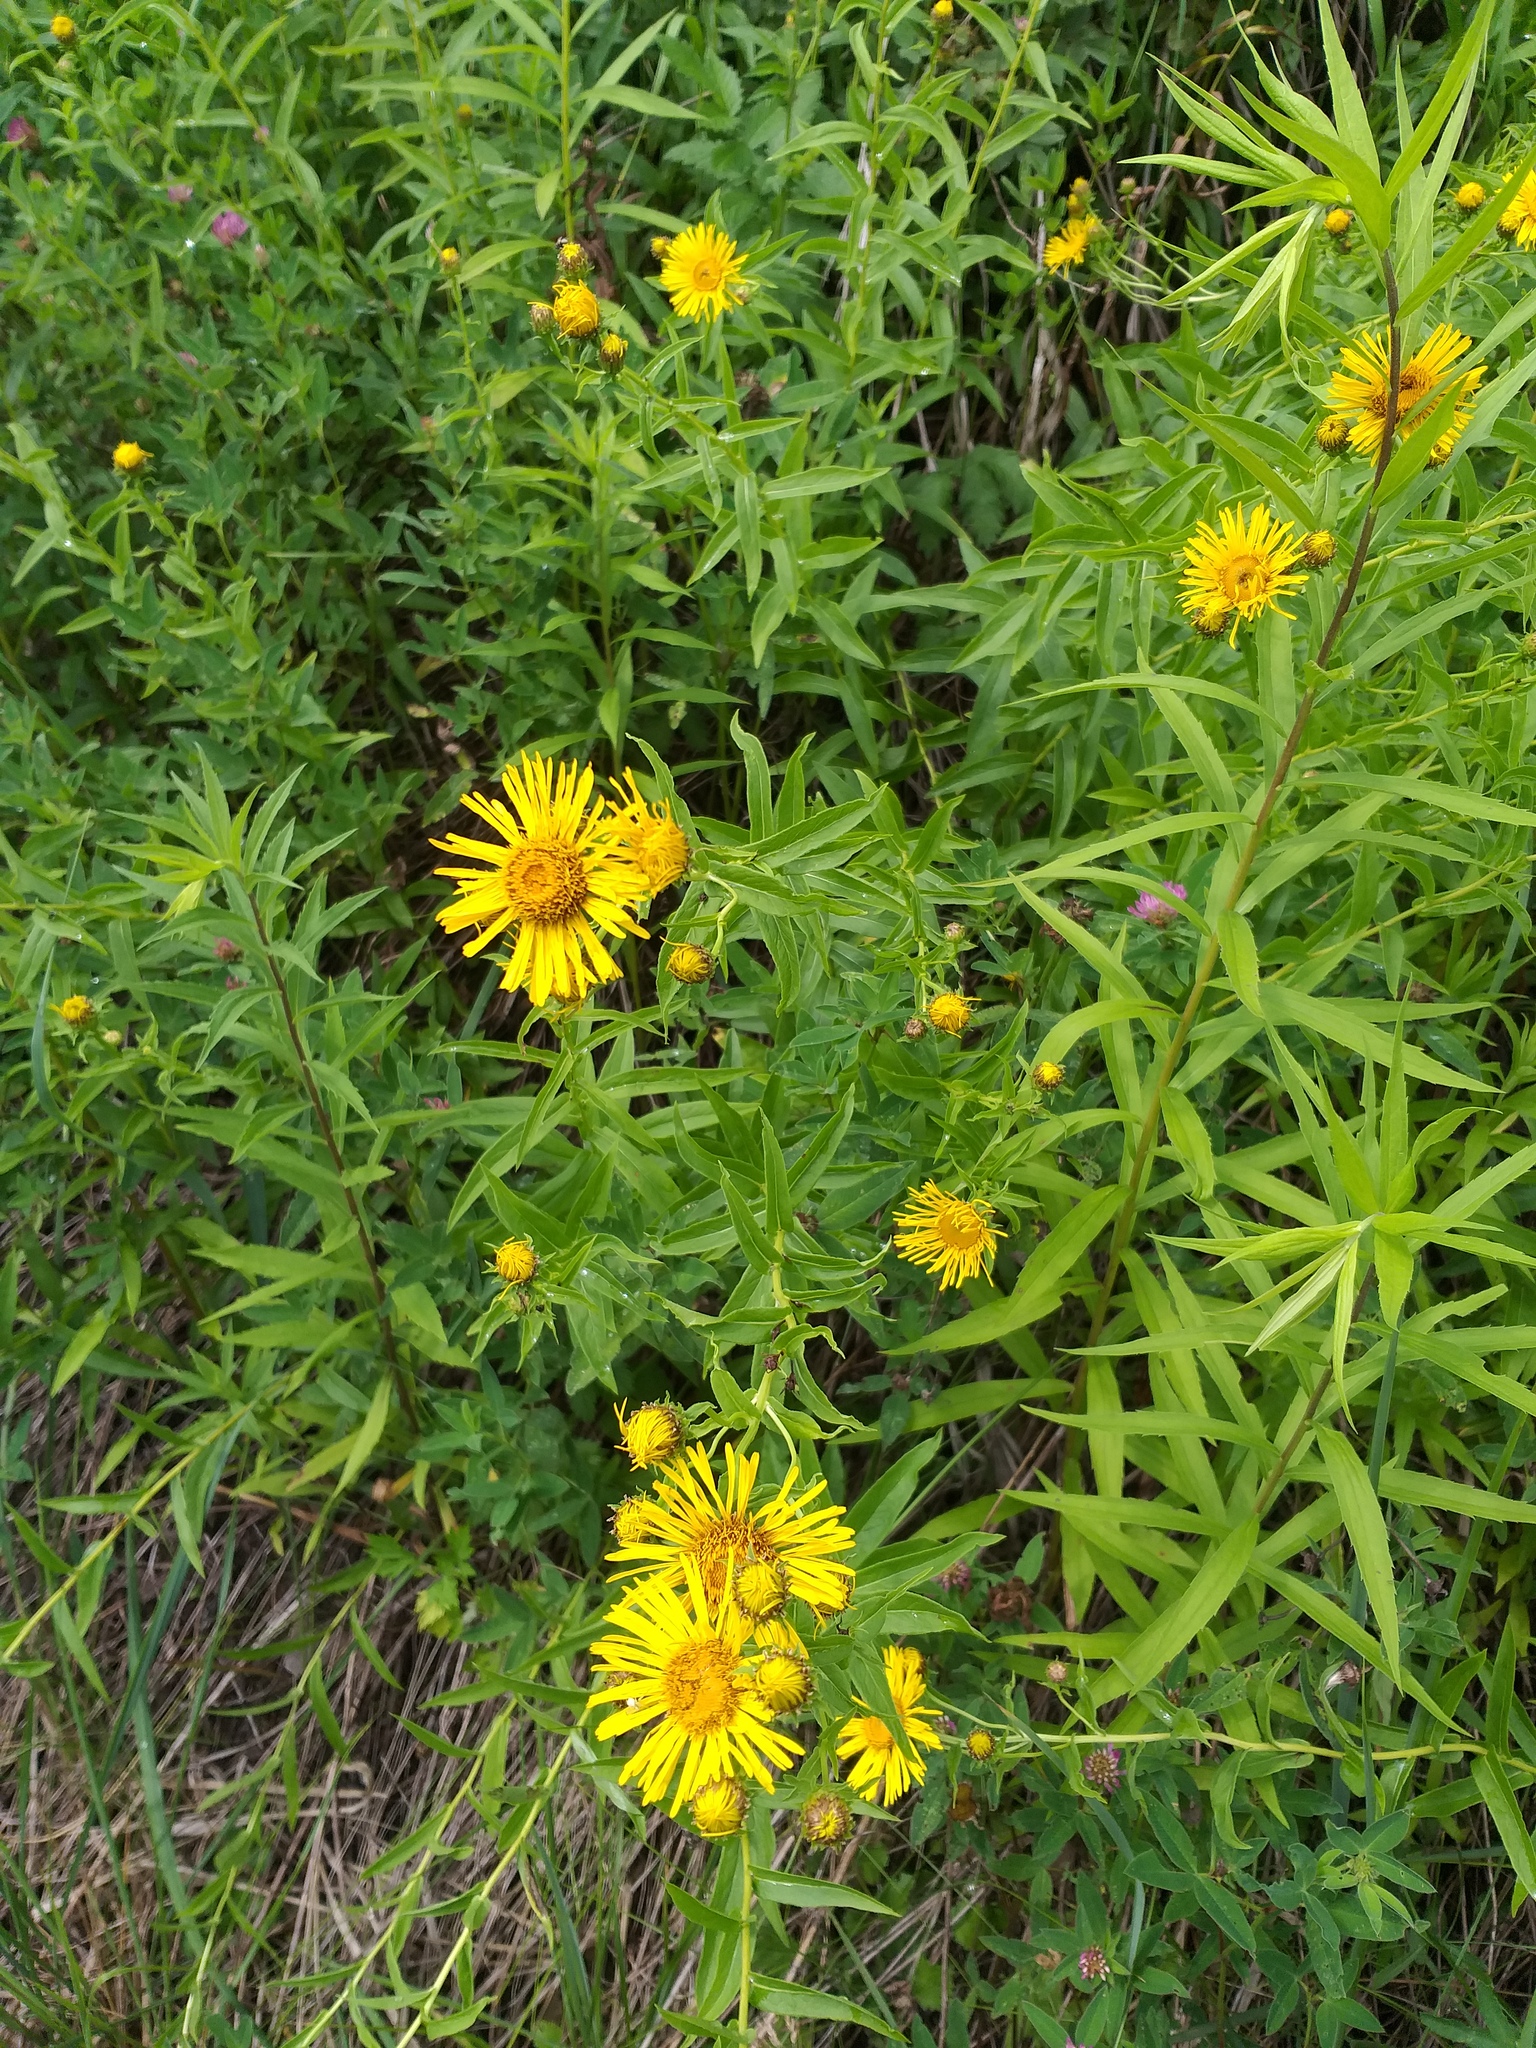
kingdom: Plantae
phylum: Tracheophyta
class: Magnoliopsida
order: Asterales
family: Asteraceae
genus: Pentanema
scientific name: Pentanema salicinum
